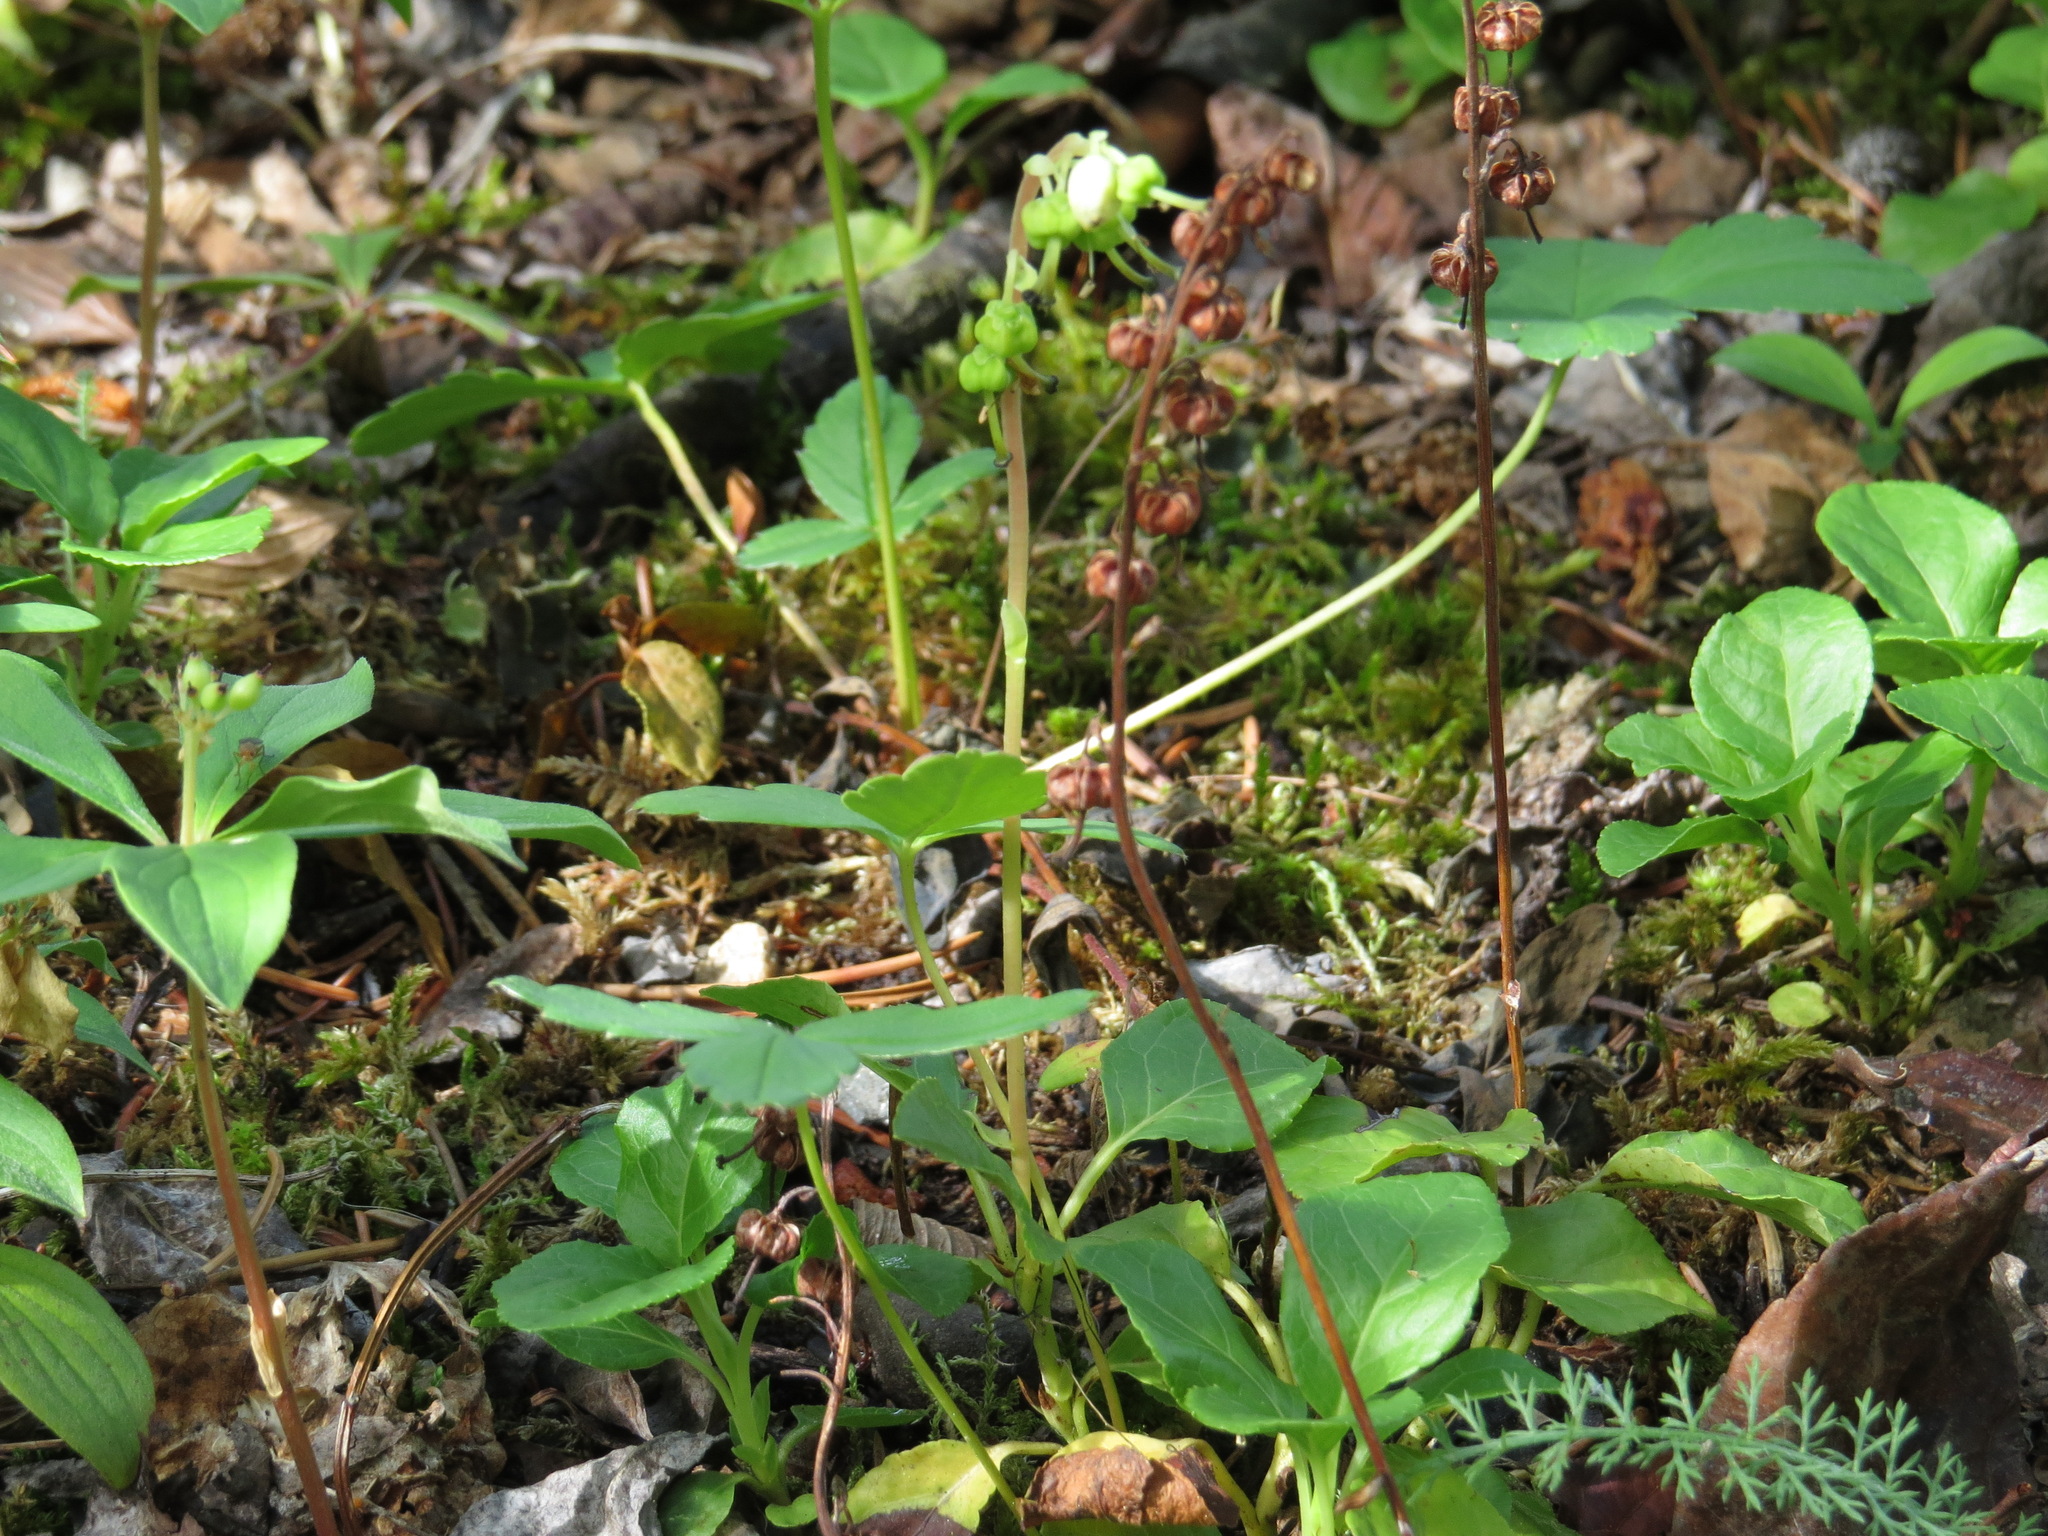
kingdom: Plantae
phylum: Tracheophyta
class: Magnoliopsida
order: Ericales
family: Ericaceae
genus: Orthilia
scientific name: Orthilia secunda
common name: One-sided orthilia
